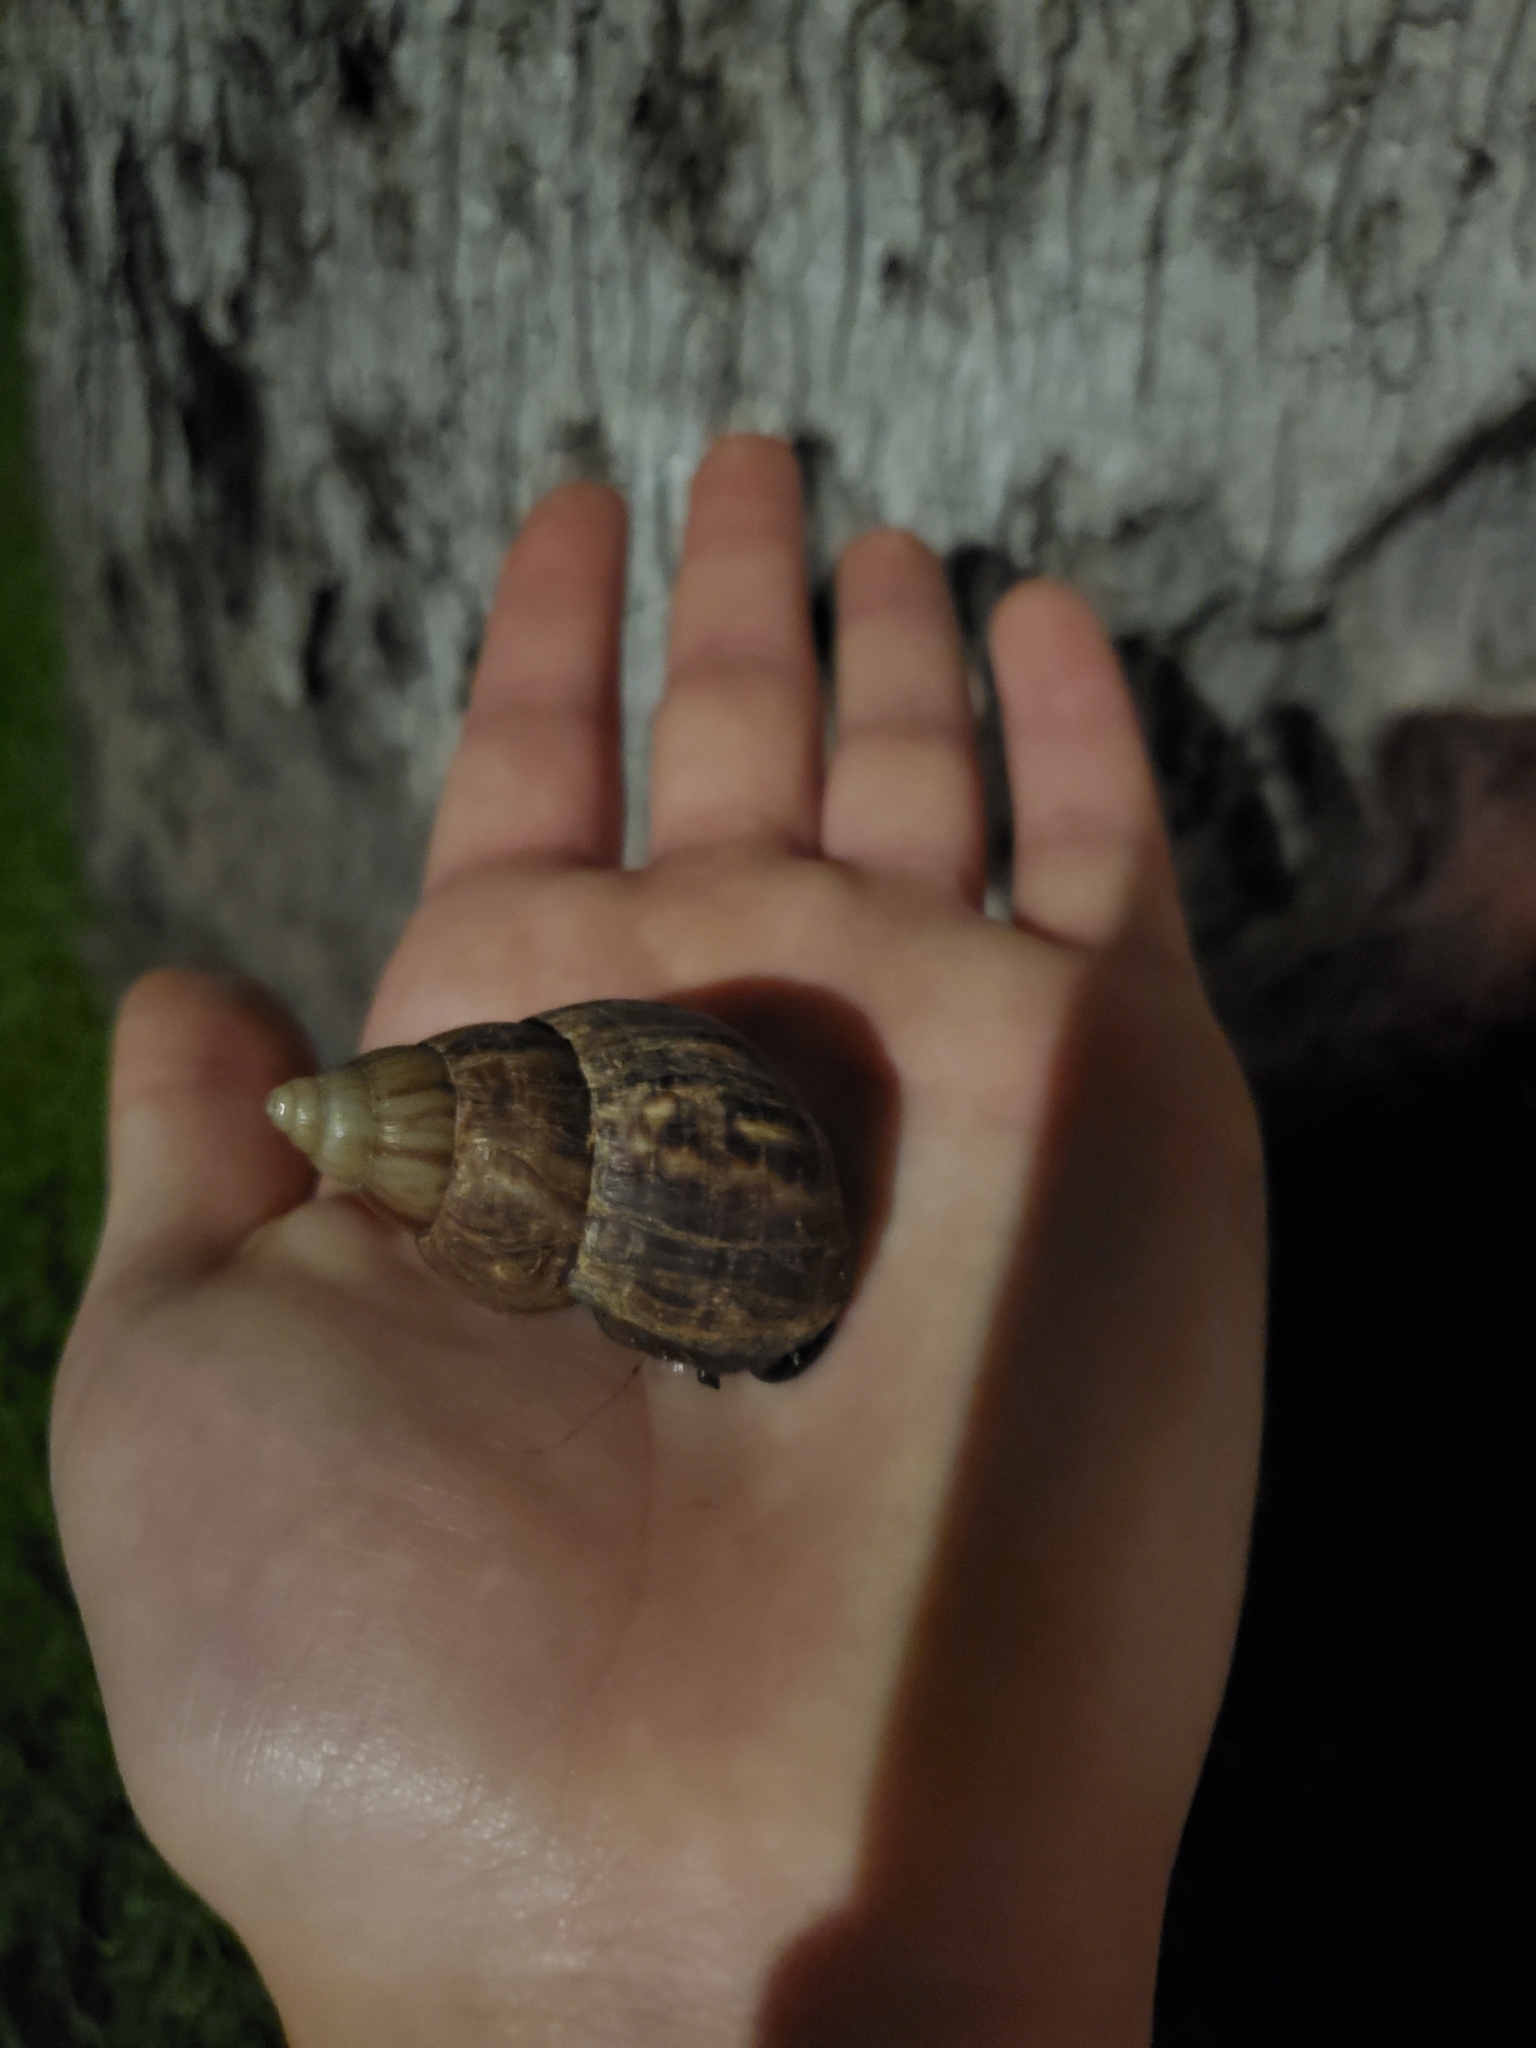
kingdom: Animalia
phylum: Mollusca
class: Gastropoda
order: Stylommatophora
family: Achatinidae
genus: Lissachatina
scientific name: Lissachatina fulica
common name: Giant african snail
